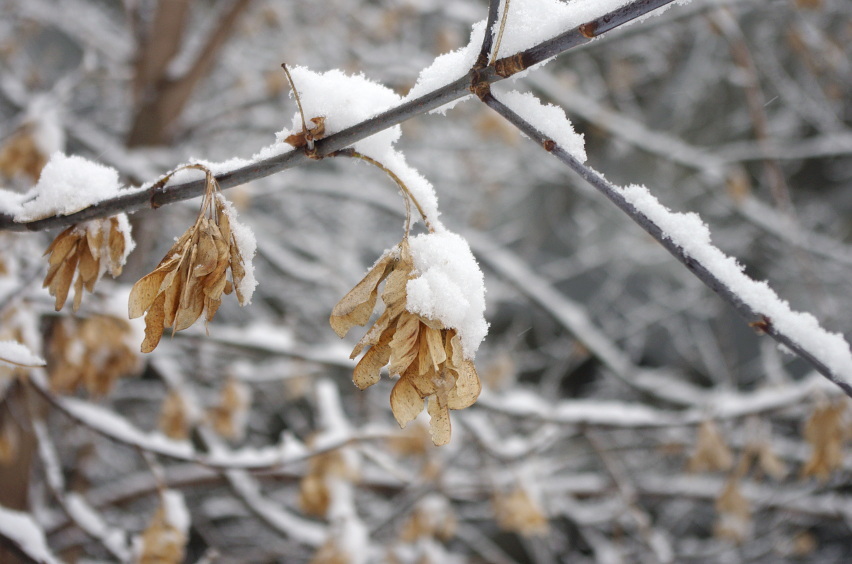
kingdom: Plantae
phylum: Tracheophyta
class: Magnoliopsida
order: Sapindales
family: Sapindaceae
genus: Acer
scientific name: Acer negundo
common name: Ashleaf maple
